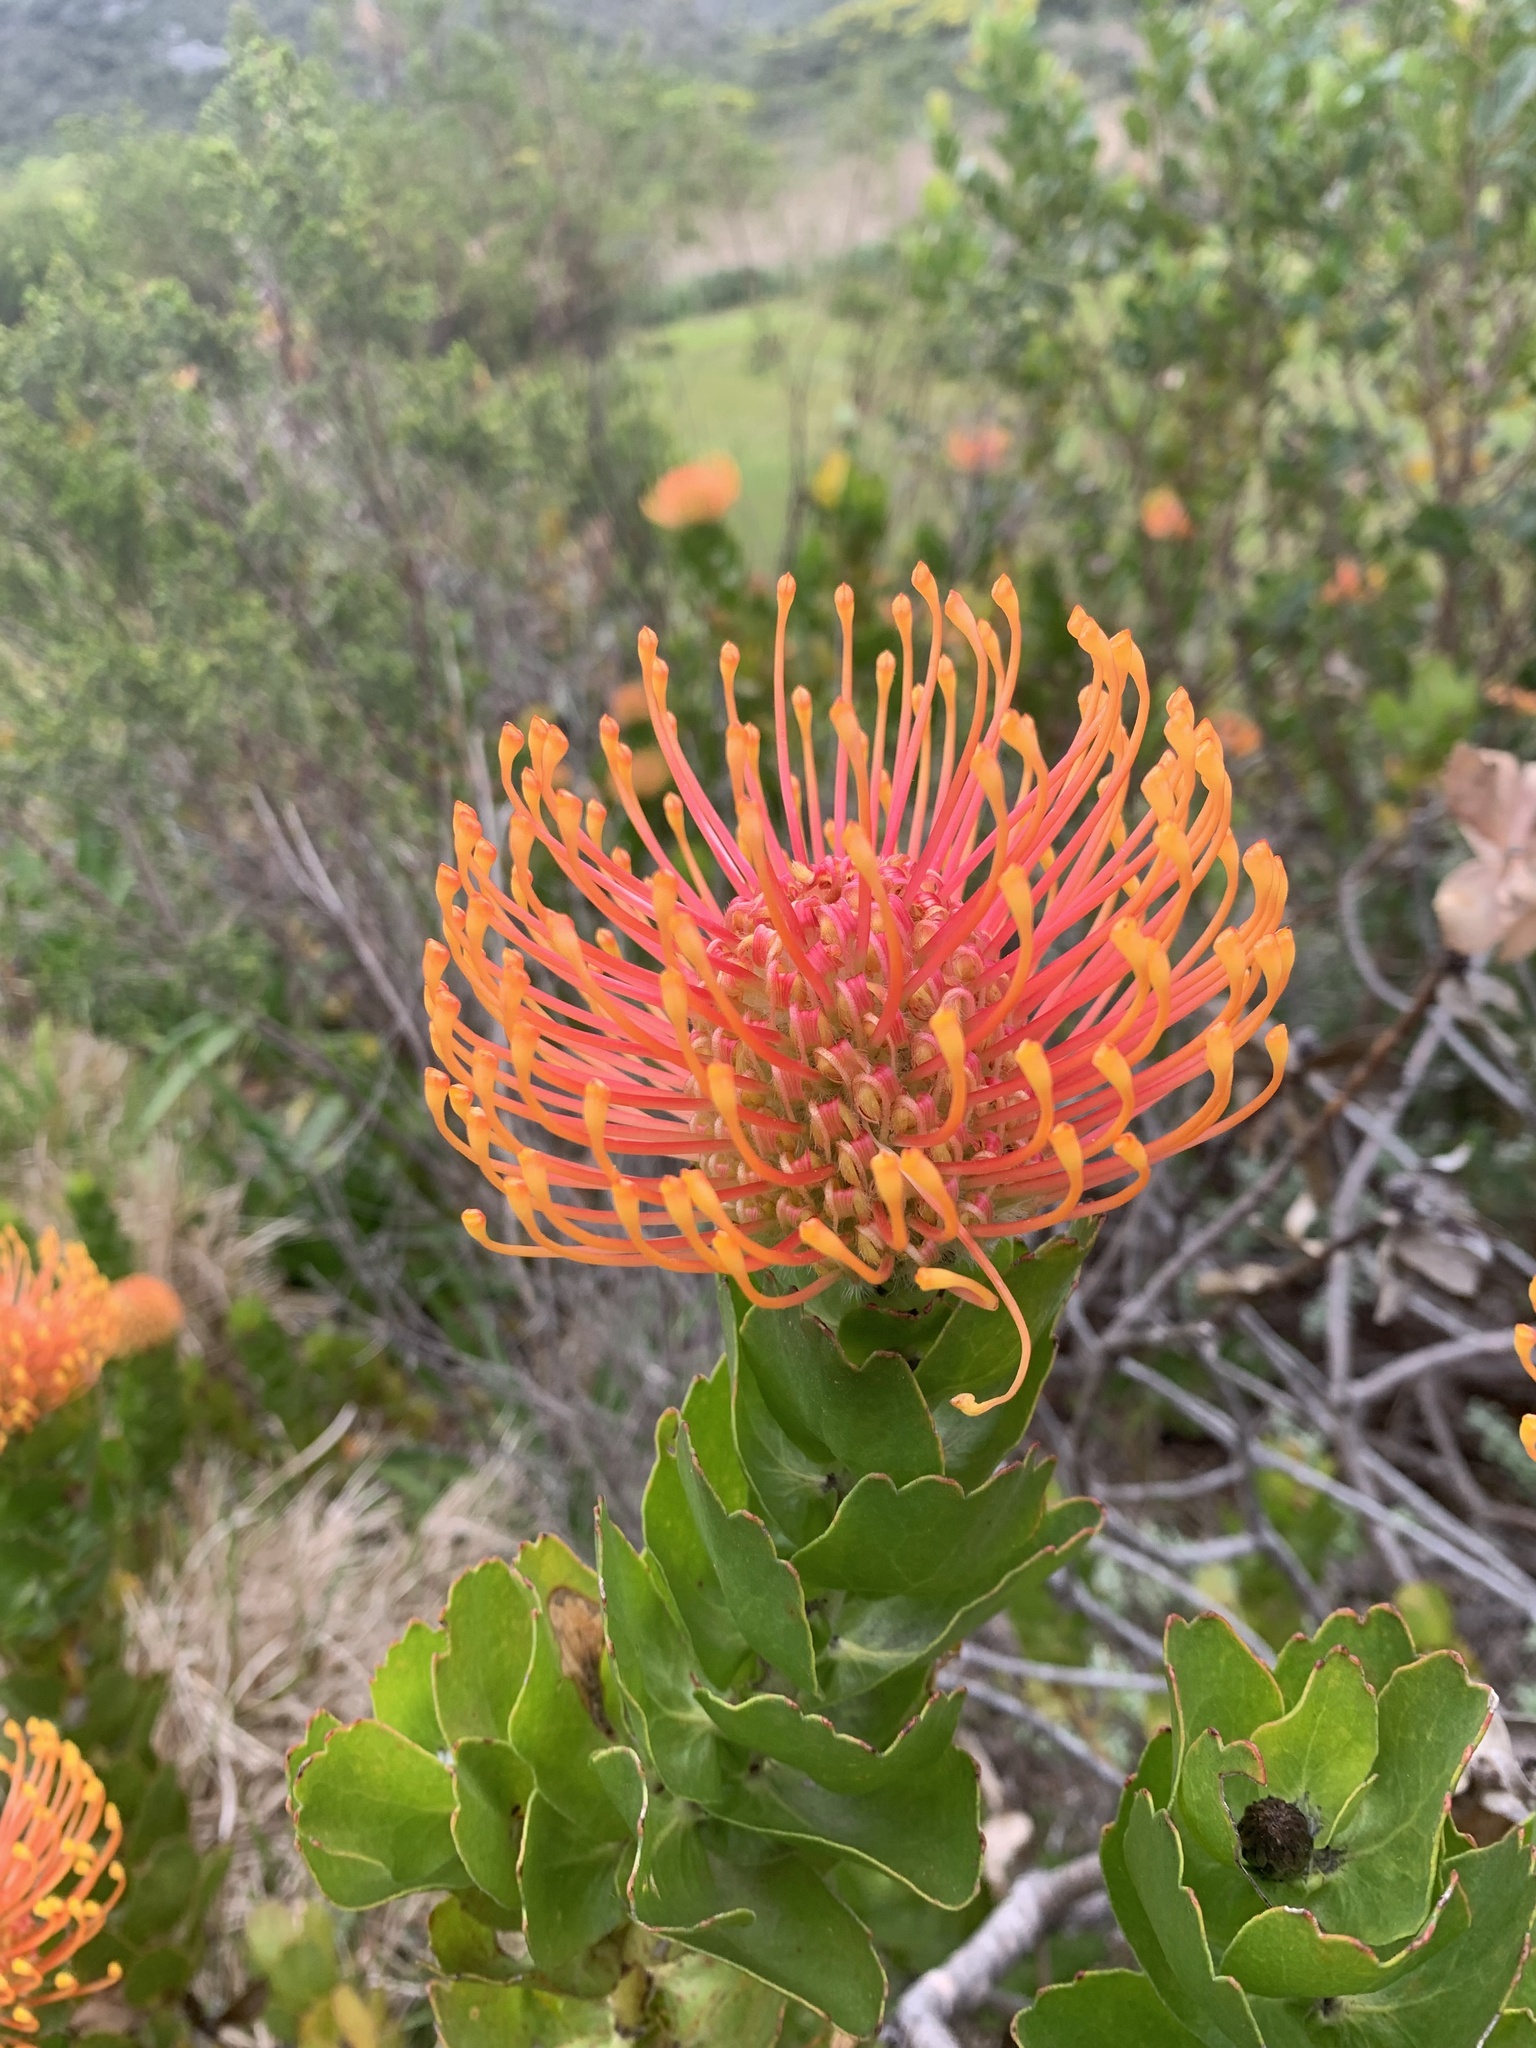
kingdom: Plantae
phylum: Tracheophyta
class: Magnoliopsida
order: Proteales
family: Proteaceae
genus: Leucospermum
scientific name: Leucospermum patersonii
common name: False tree pincushion
